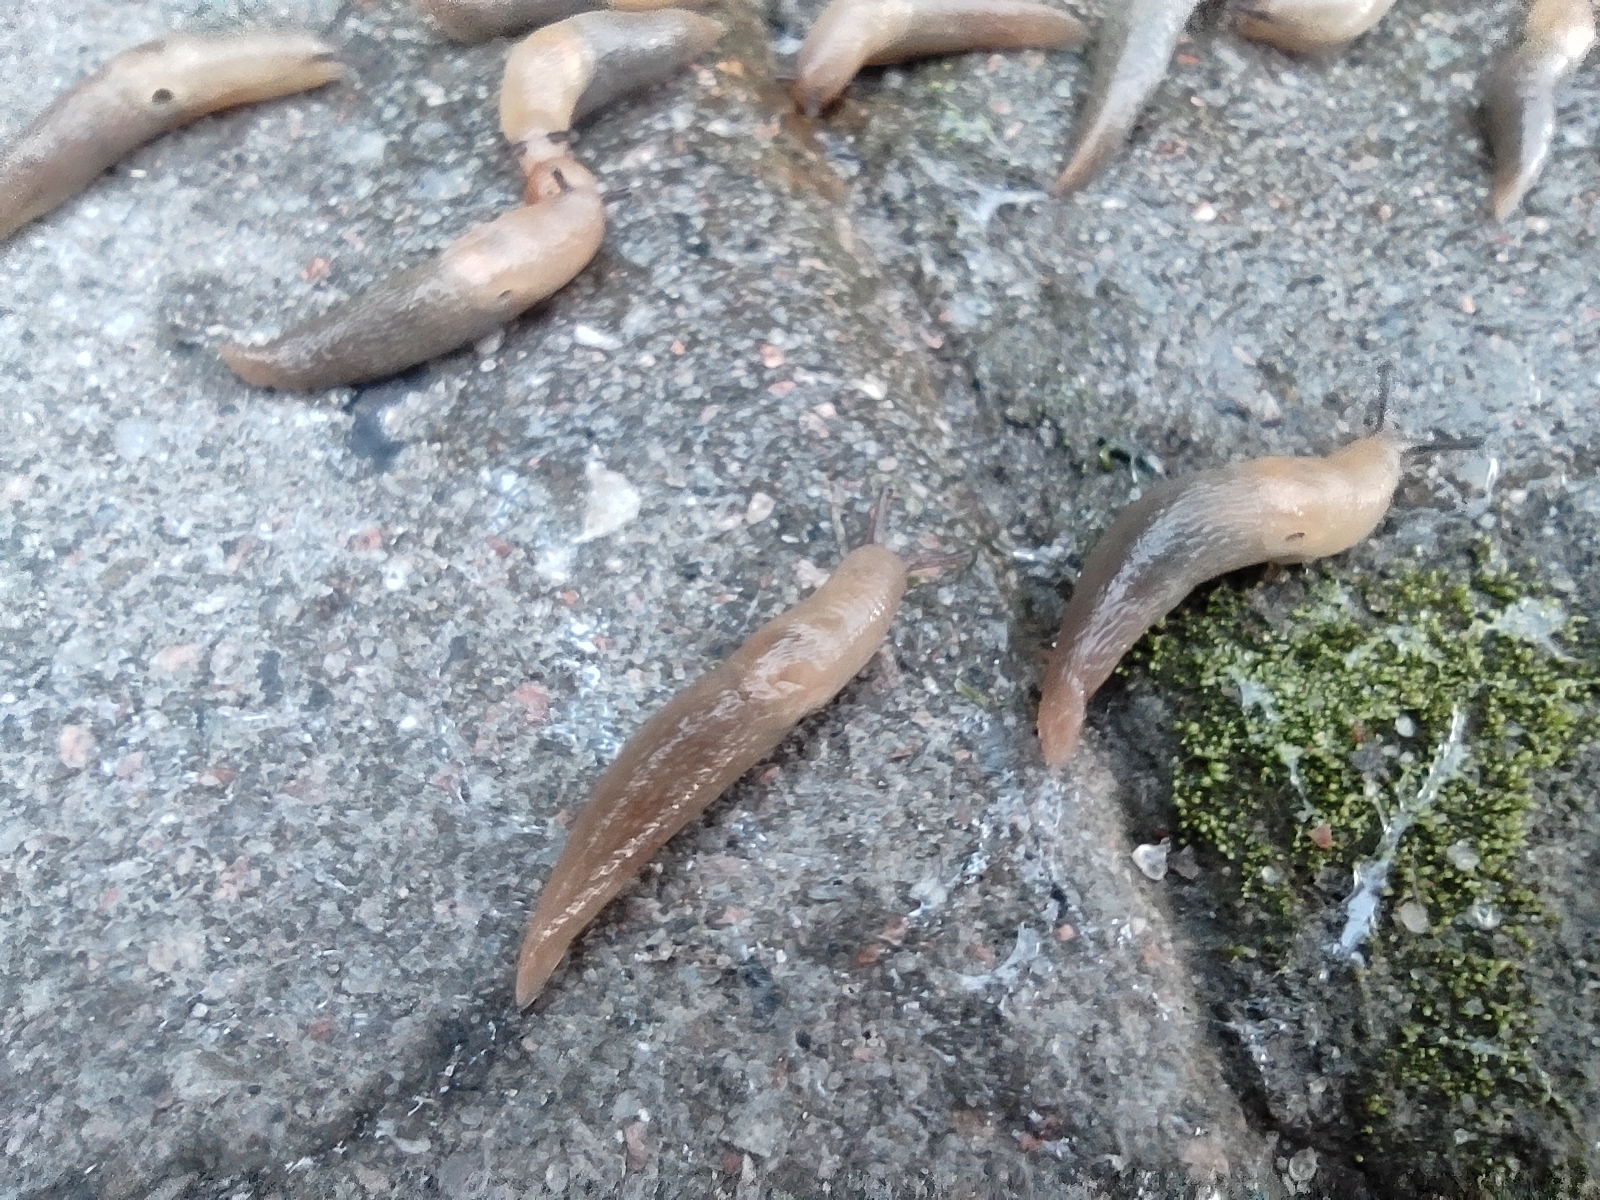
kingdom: Animalia
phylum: Mollusca
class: Gastropoda
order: Stylommatophora
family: Agriolimacidae
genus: Deroceras
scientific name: Deroceras caucasicum
